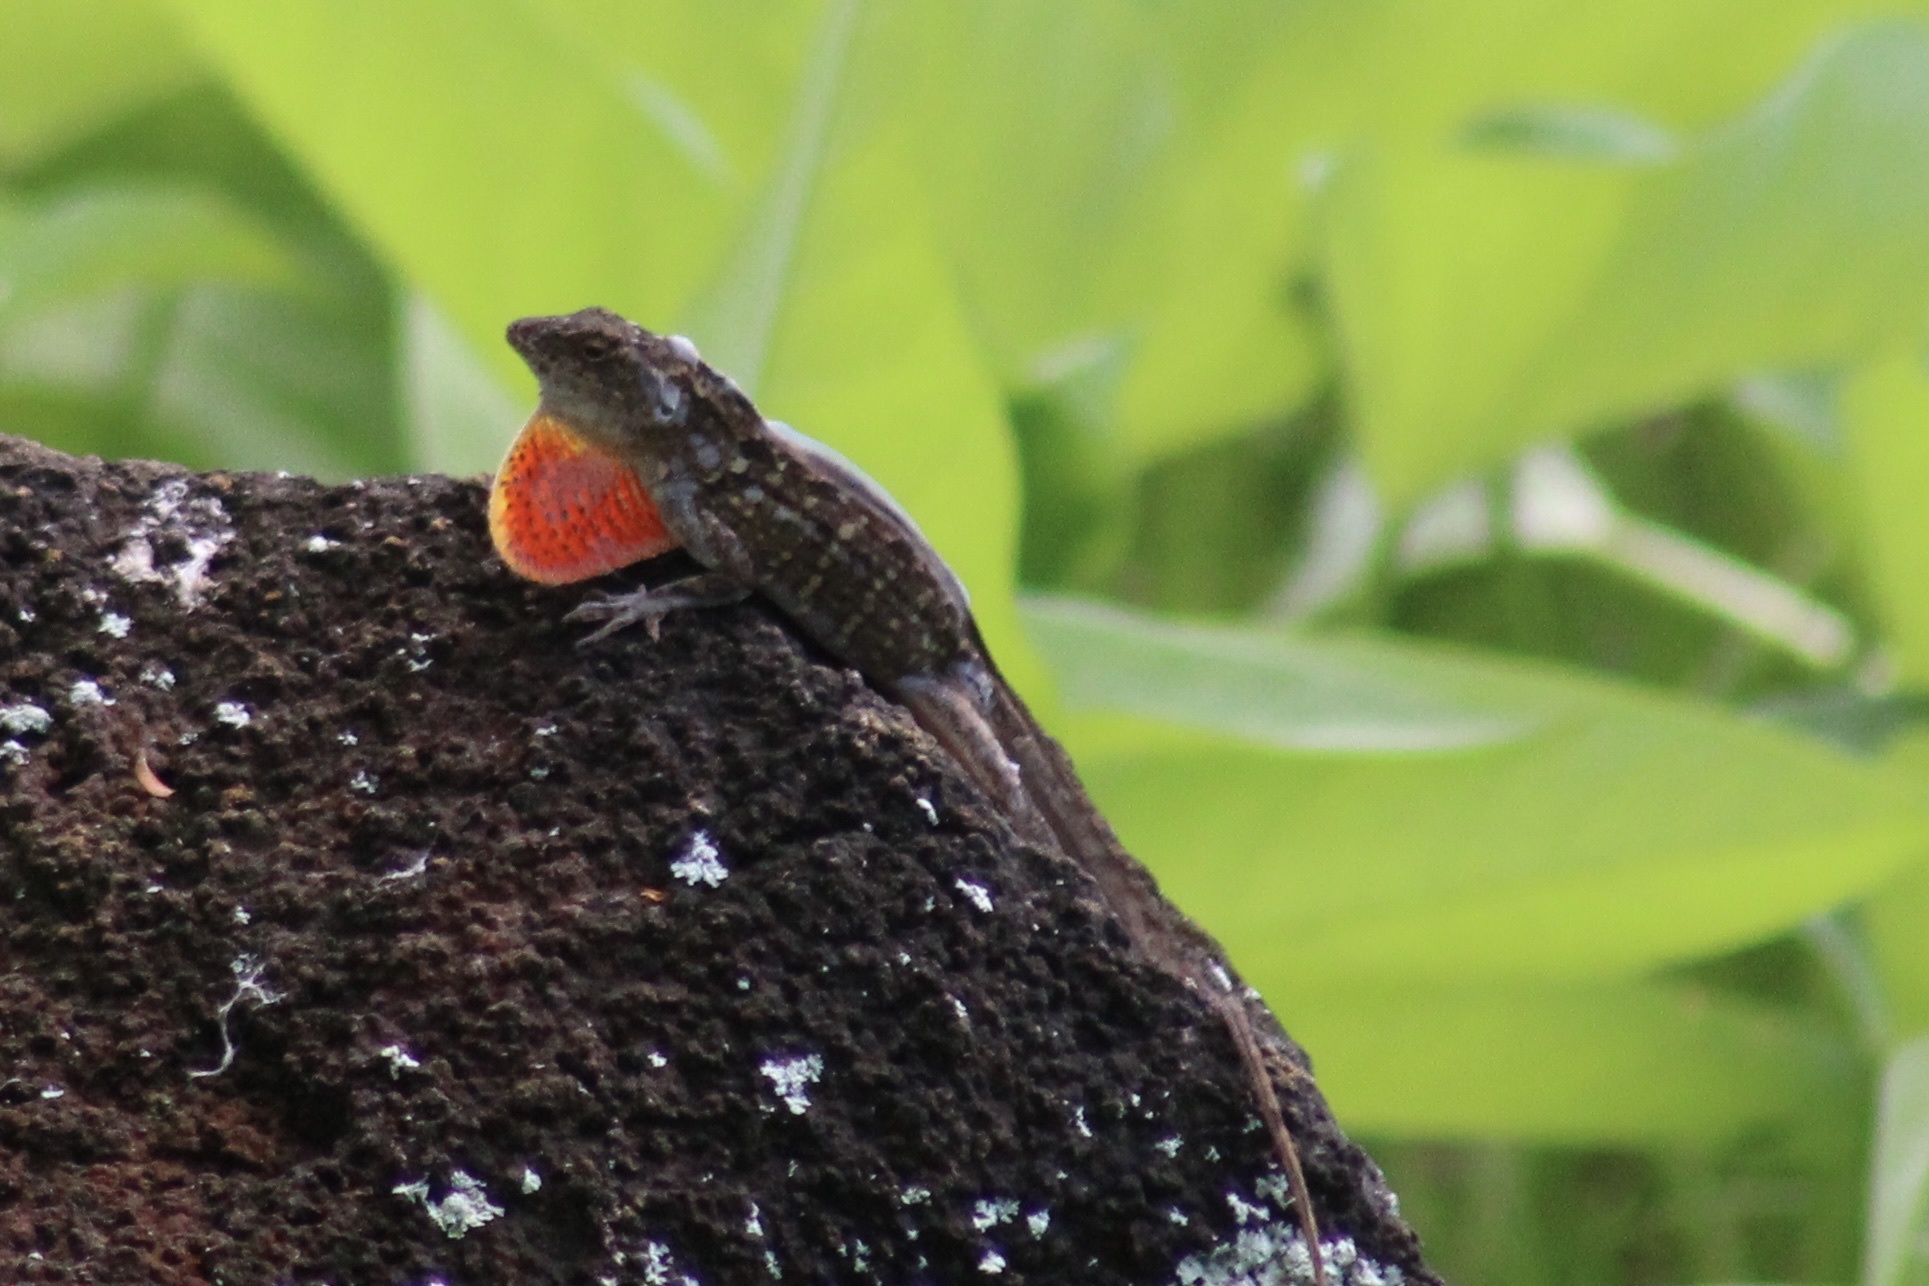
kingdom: Animalia
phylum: Chordata
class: Squamata
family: Dactyloidae
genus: Anolis
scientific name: Anolis sagrei
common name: Brown anole
